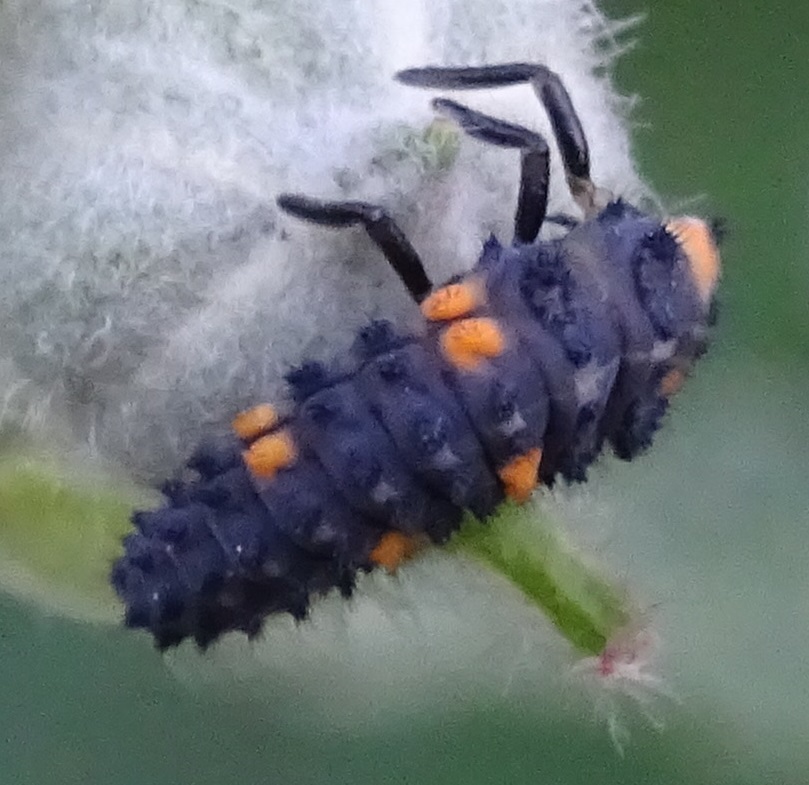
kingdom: Animalia
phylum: Arthropoda
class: Insecta
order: Coleoptera
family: Coccinellidae
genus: Coccinella
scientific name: Coccinella septempunctata
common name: Sevenspotted lady beetle
